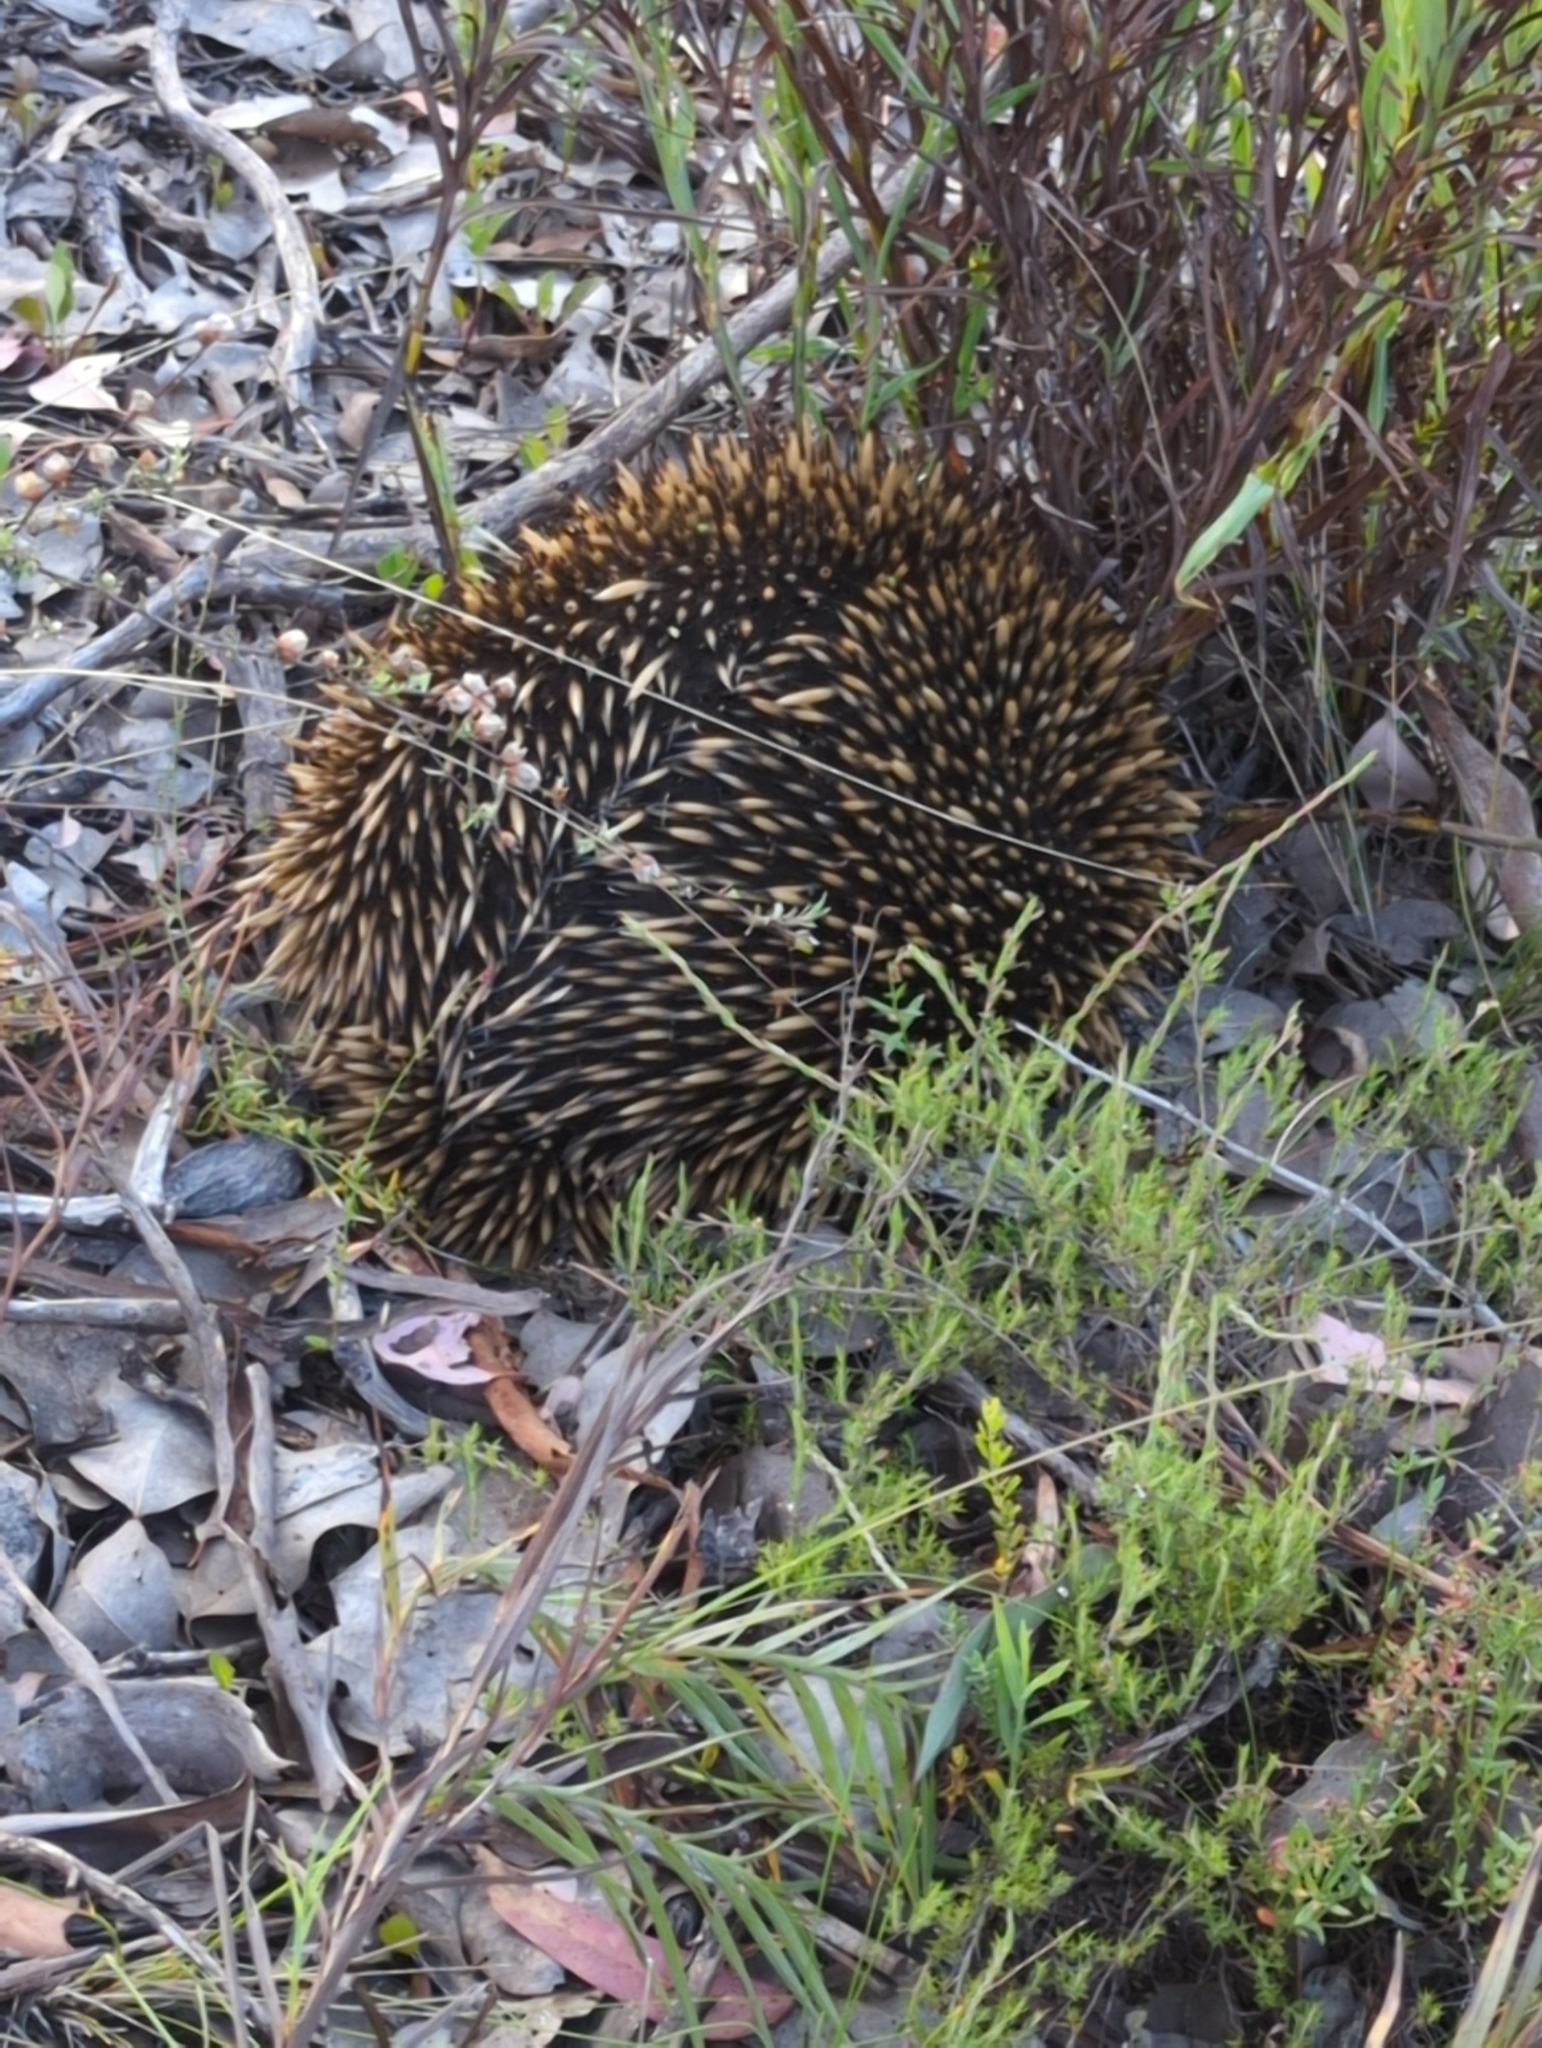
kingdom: Animalia
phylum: Chordata
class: Mammalia
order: Monotremata
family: Tachyglossidae
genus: Tachyglossus
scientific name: Tachyglossus aculeatus
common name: Short-beaked echidna
